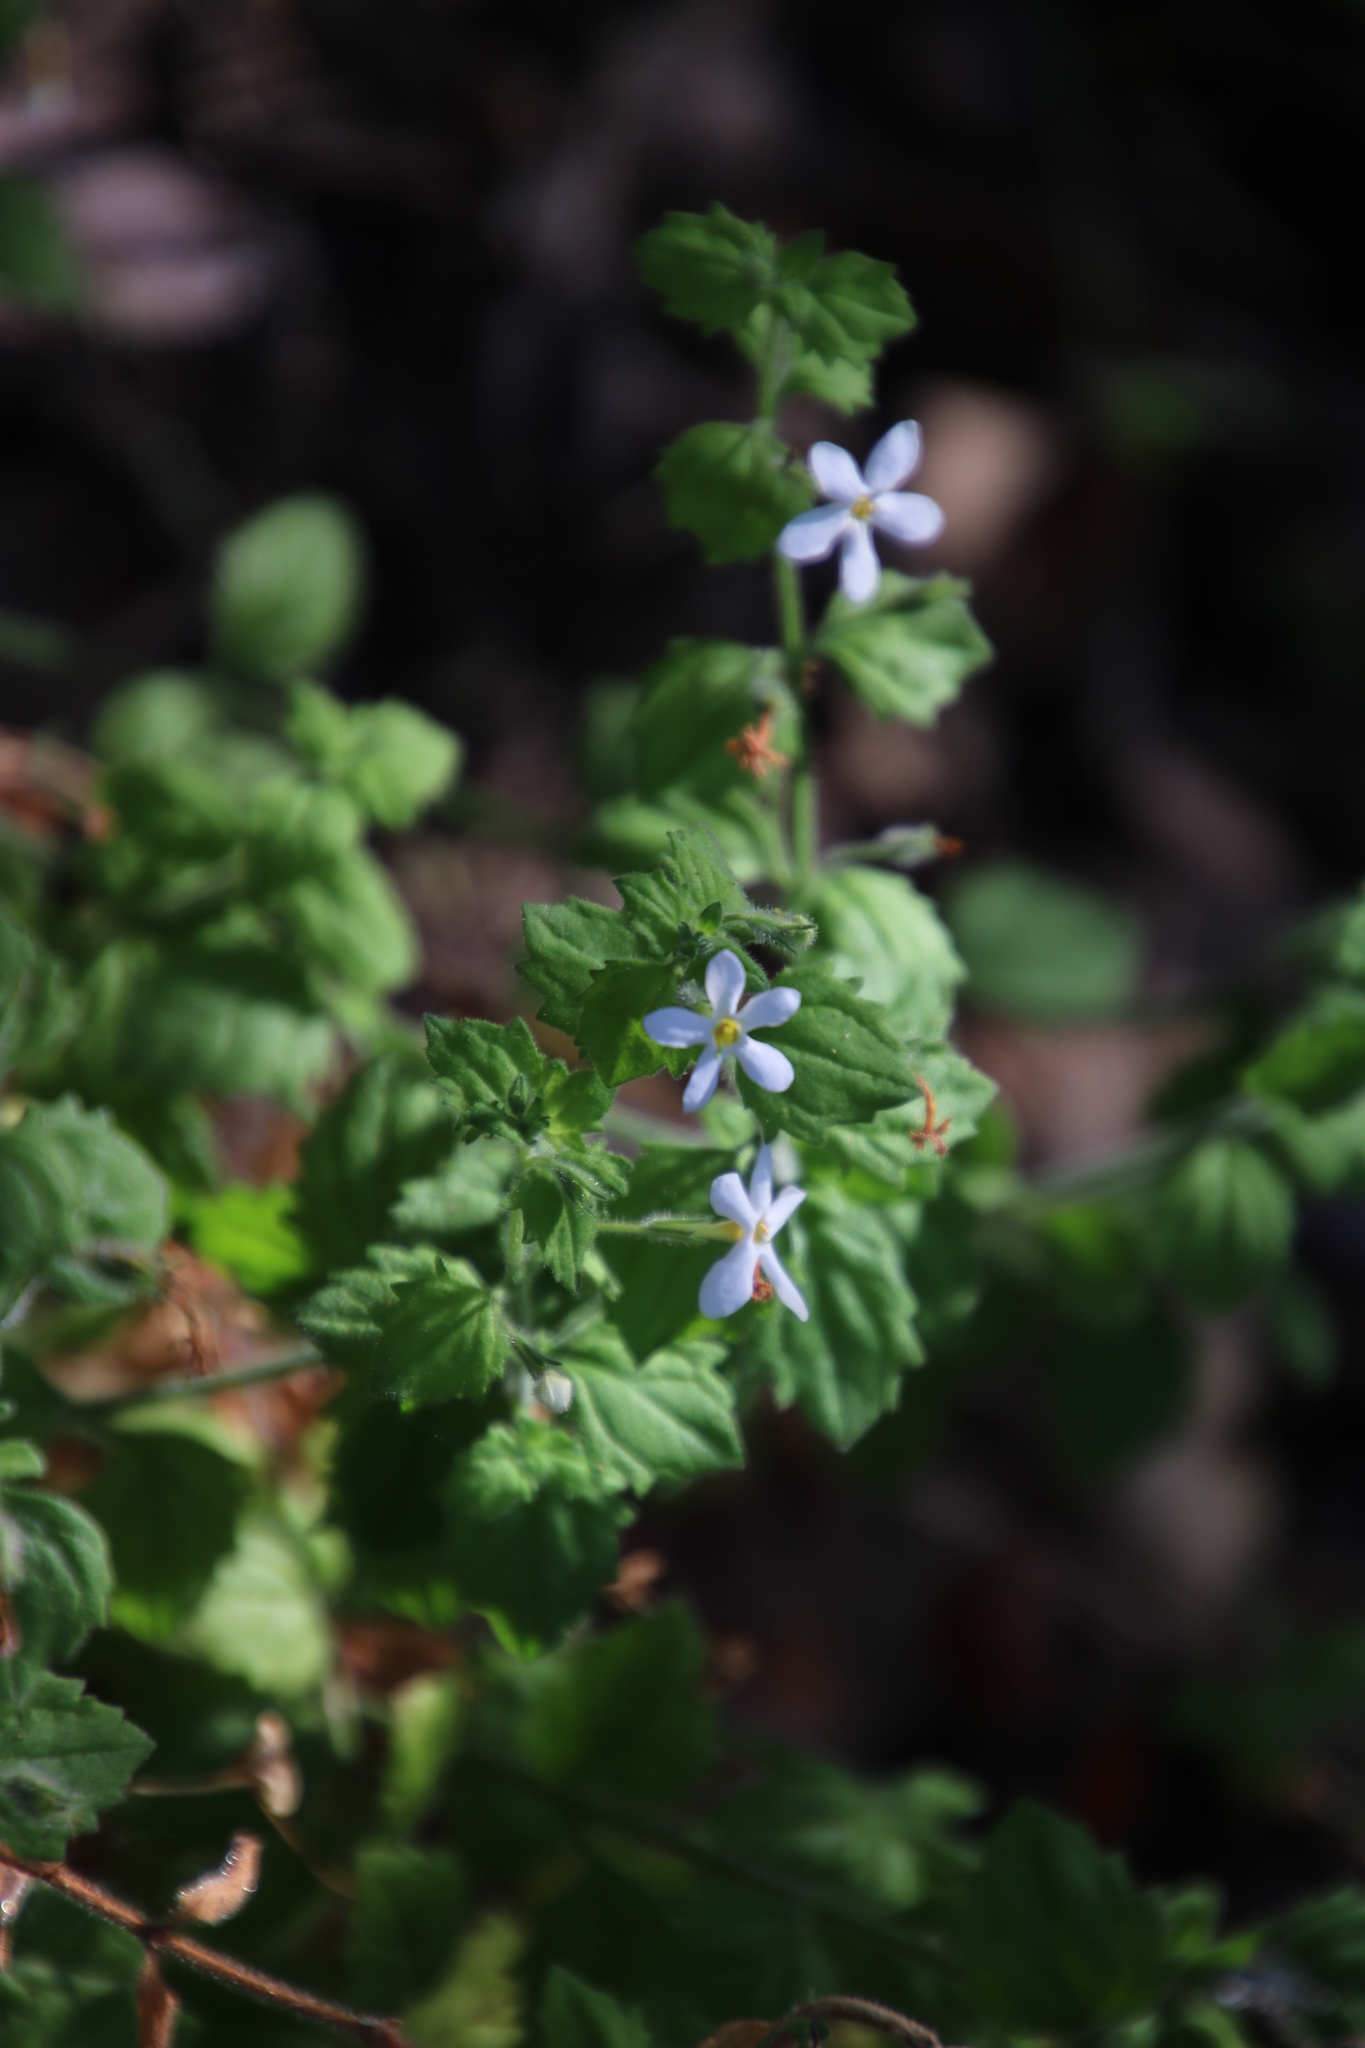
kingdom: Plantae
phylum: Tracheophyta
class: Magnoliopsida
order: Lamiales
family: Scrophulariaceae
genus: Chaenostoma
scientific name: Chaenostoma hispidum
